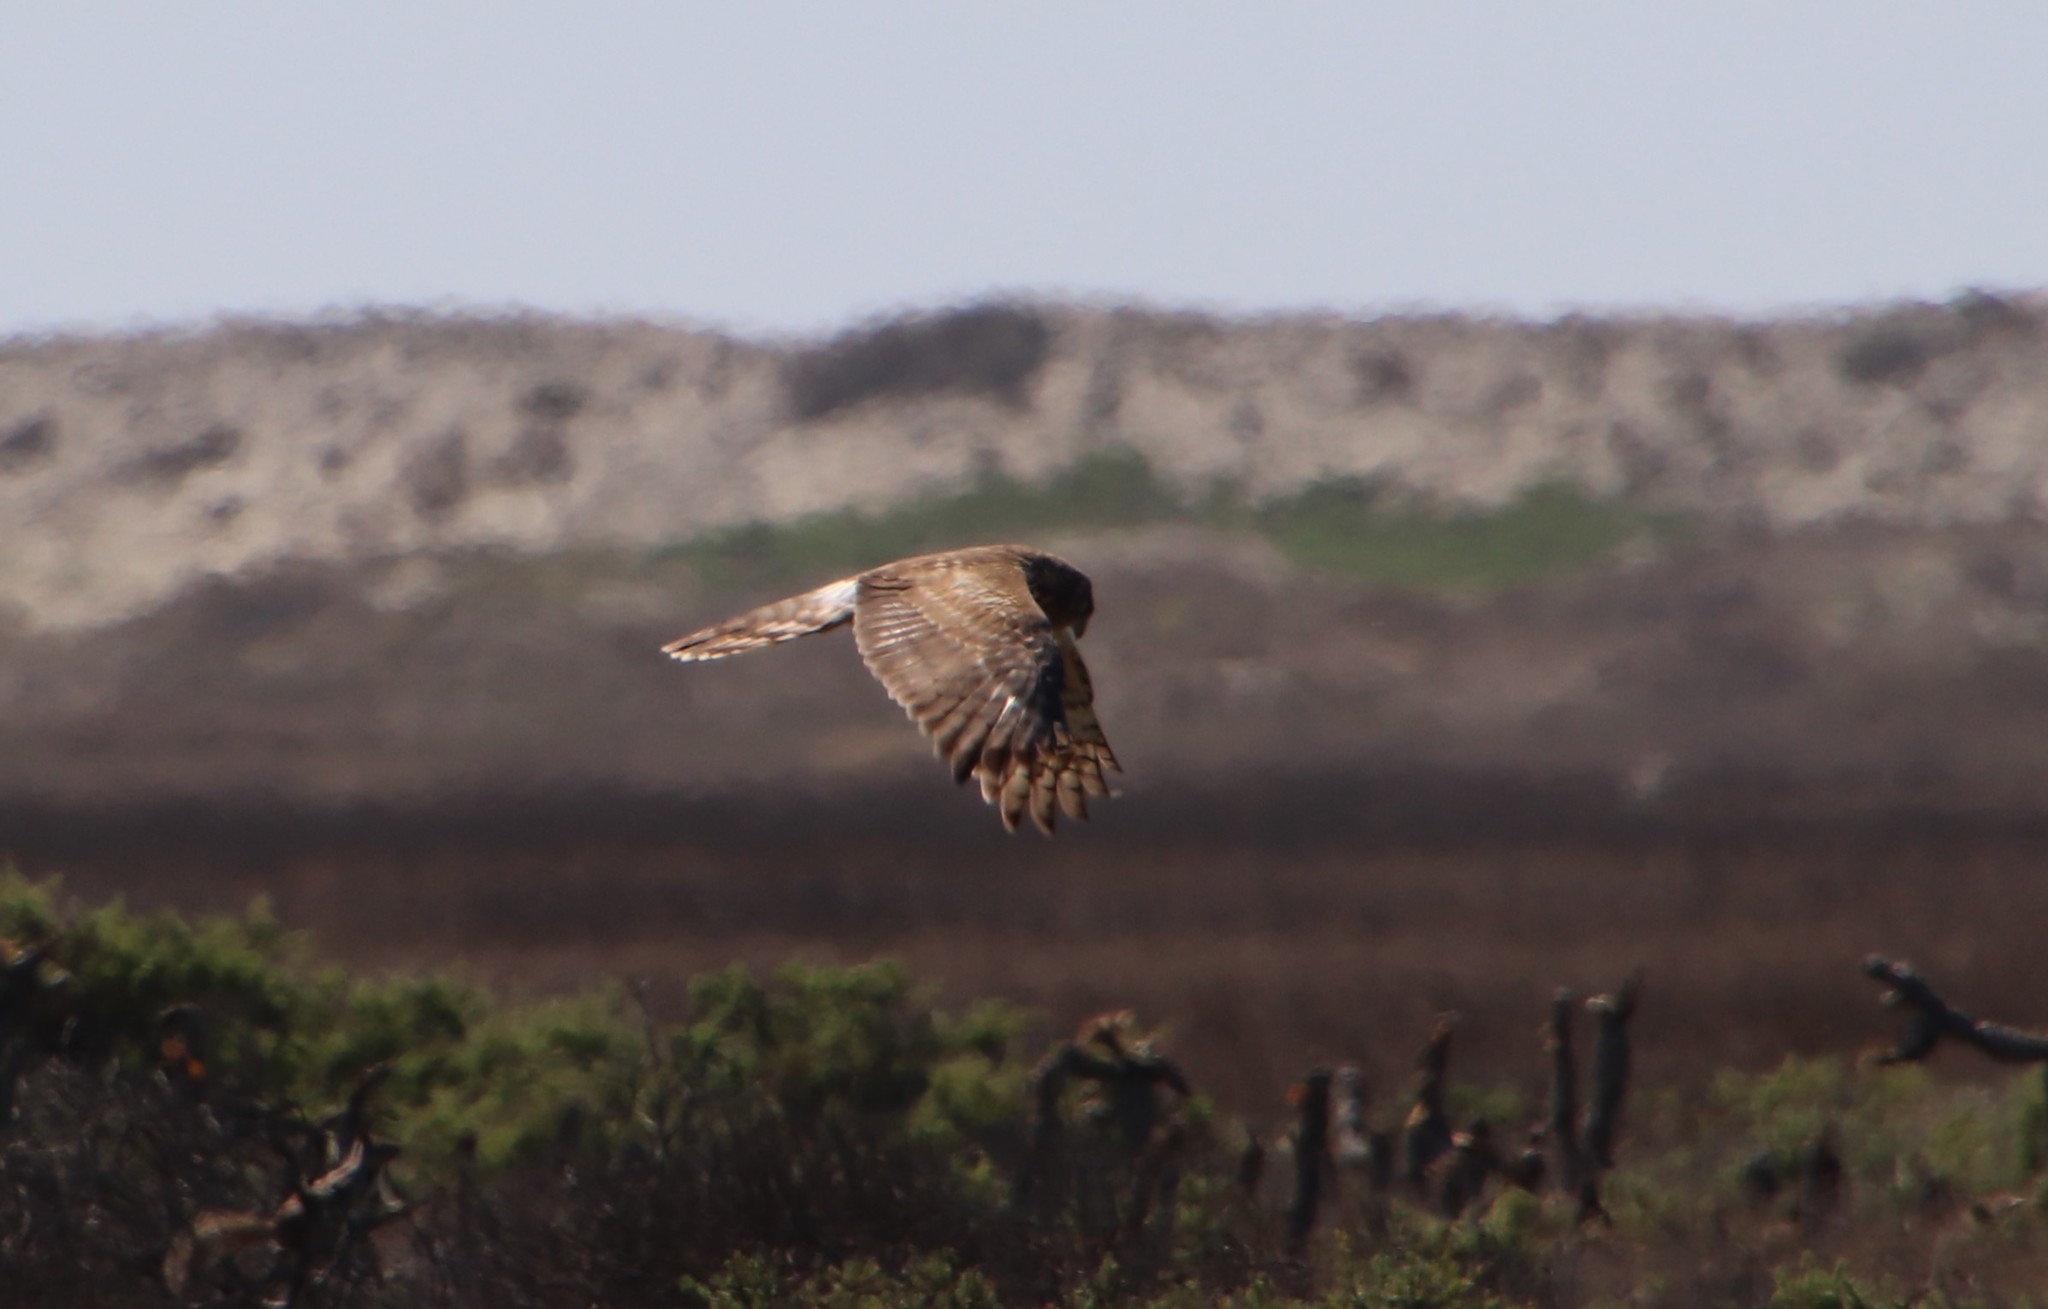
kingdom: Animalia
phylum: Chordata
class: Aves
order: Accipitriformes
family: Accipitridae
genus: Circus
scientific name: Circus cyaneus
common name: Hen harrier
